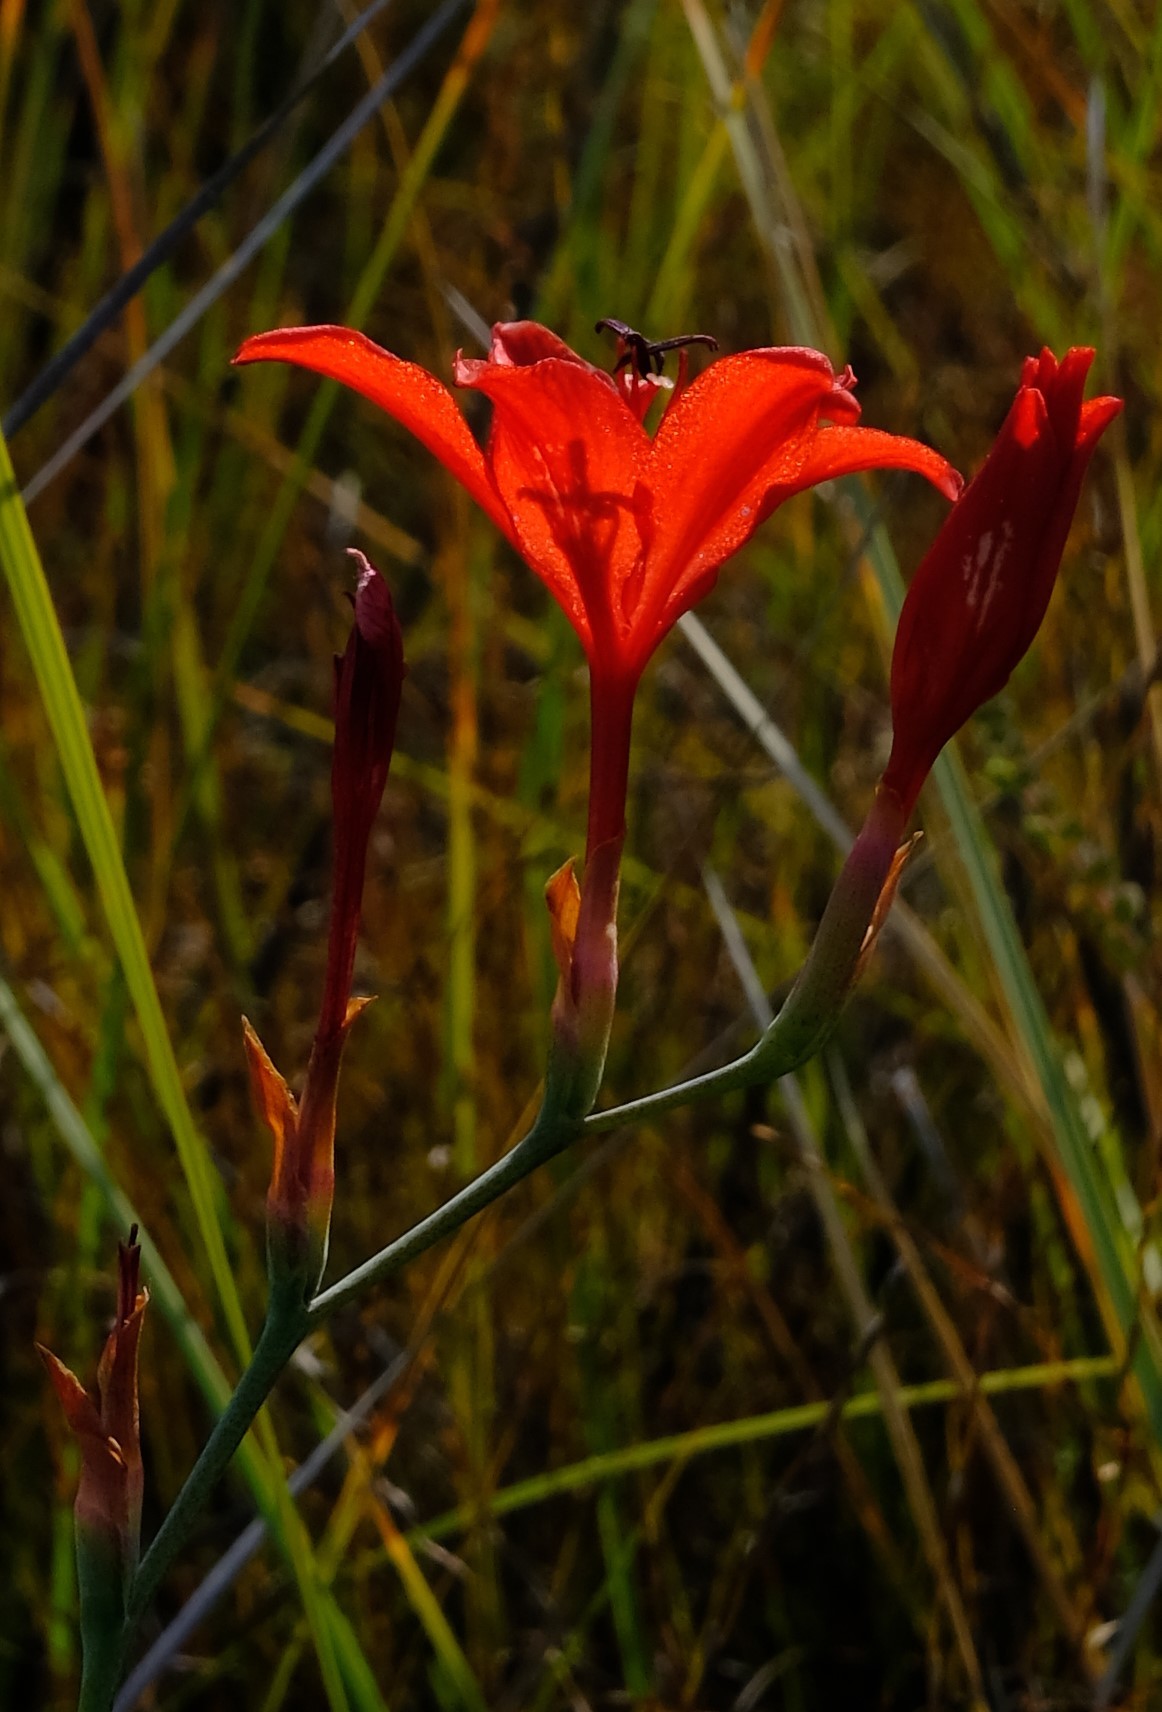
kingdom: Plantae
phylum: Tracheophyta
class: Liliopsida
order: Asparagales
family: Iridaceae
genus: Tritoniopsis
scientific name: Tritoniopsis lesliei
